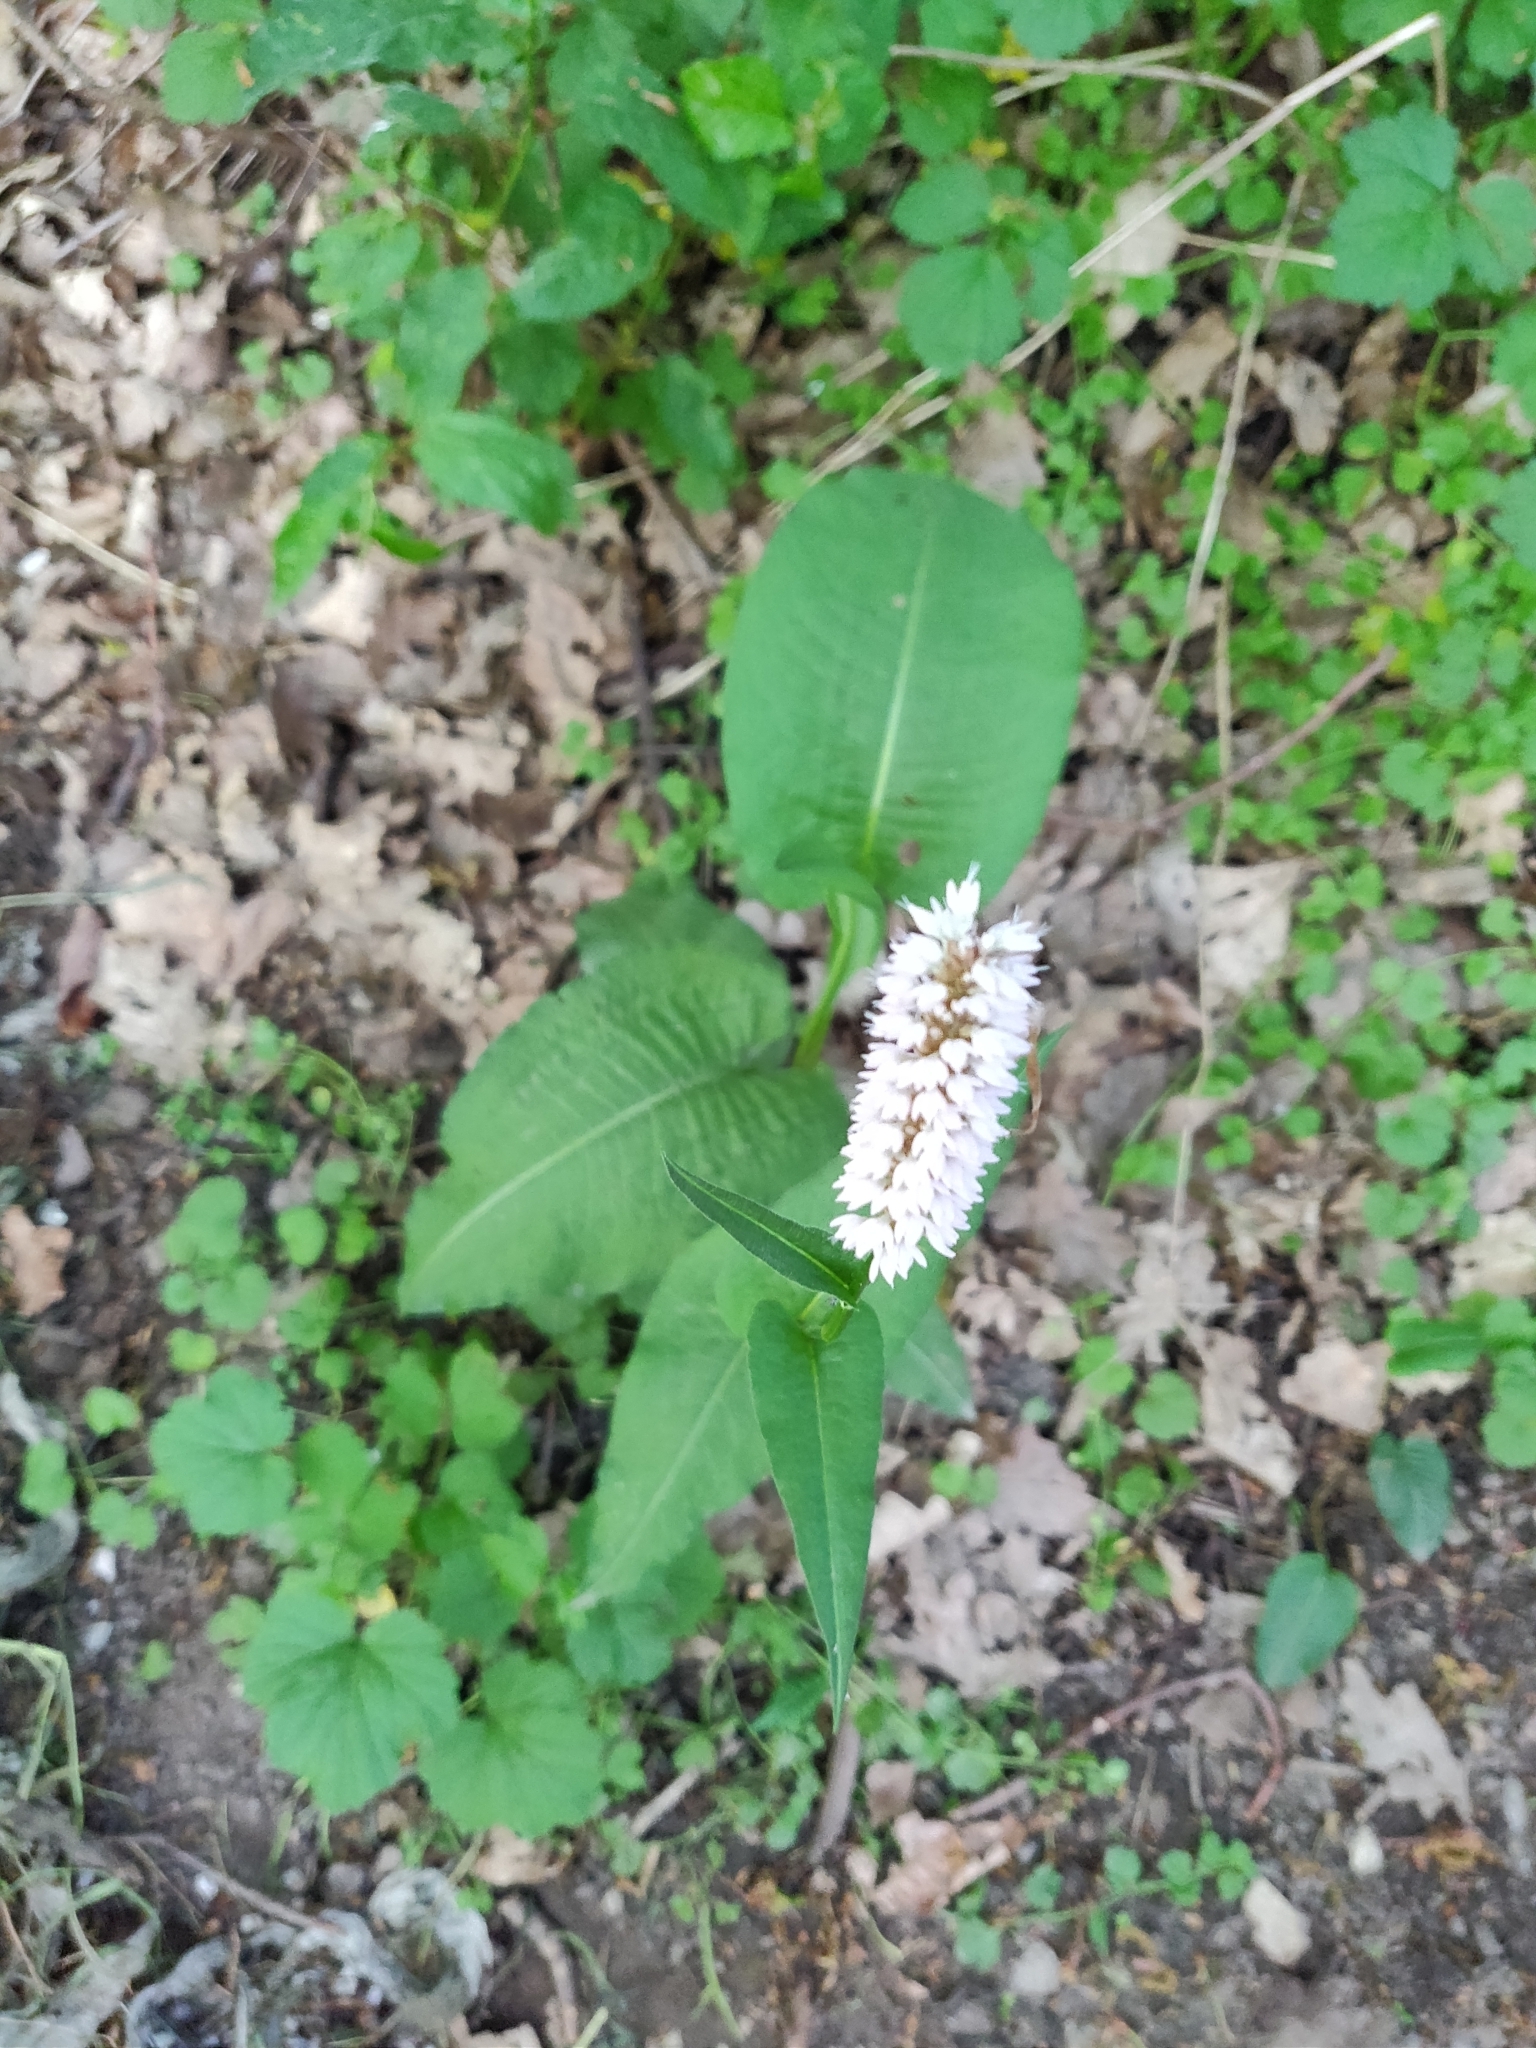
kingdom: Plantae
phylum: Tracheophyta
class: Magnoliopsida
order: Caryophyllales
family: Polygonaceae
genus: Bistorta
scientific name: Bistorta officinalis
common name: Common bistort
